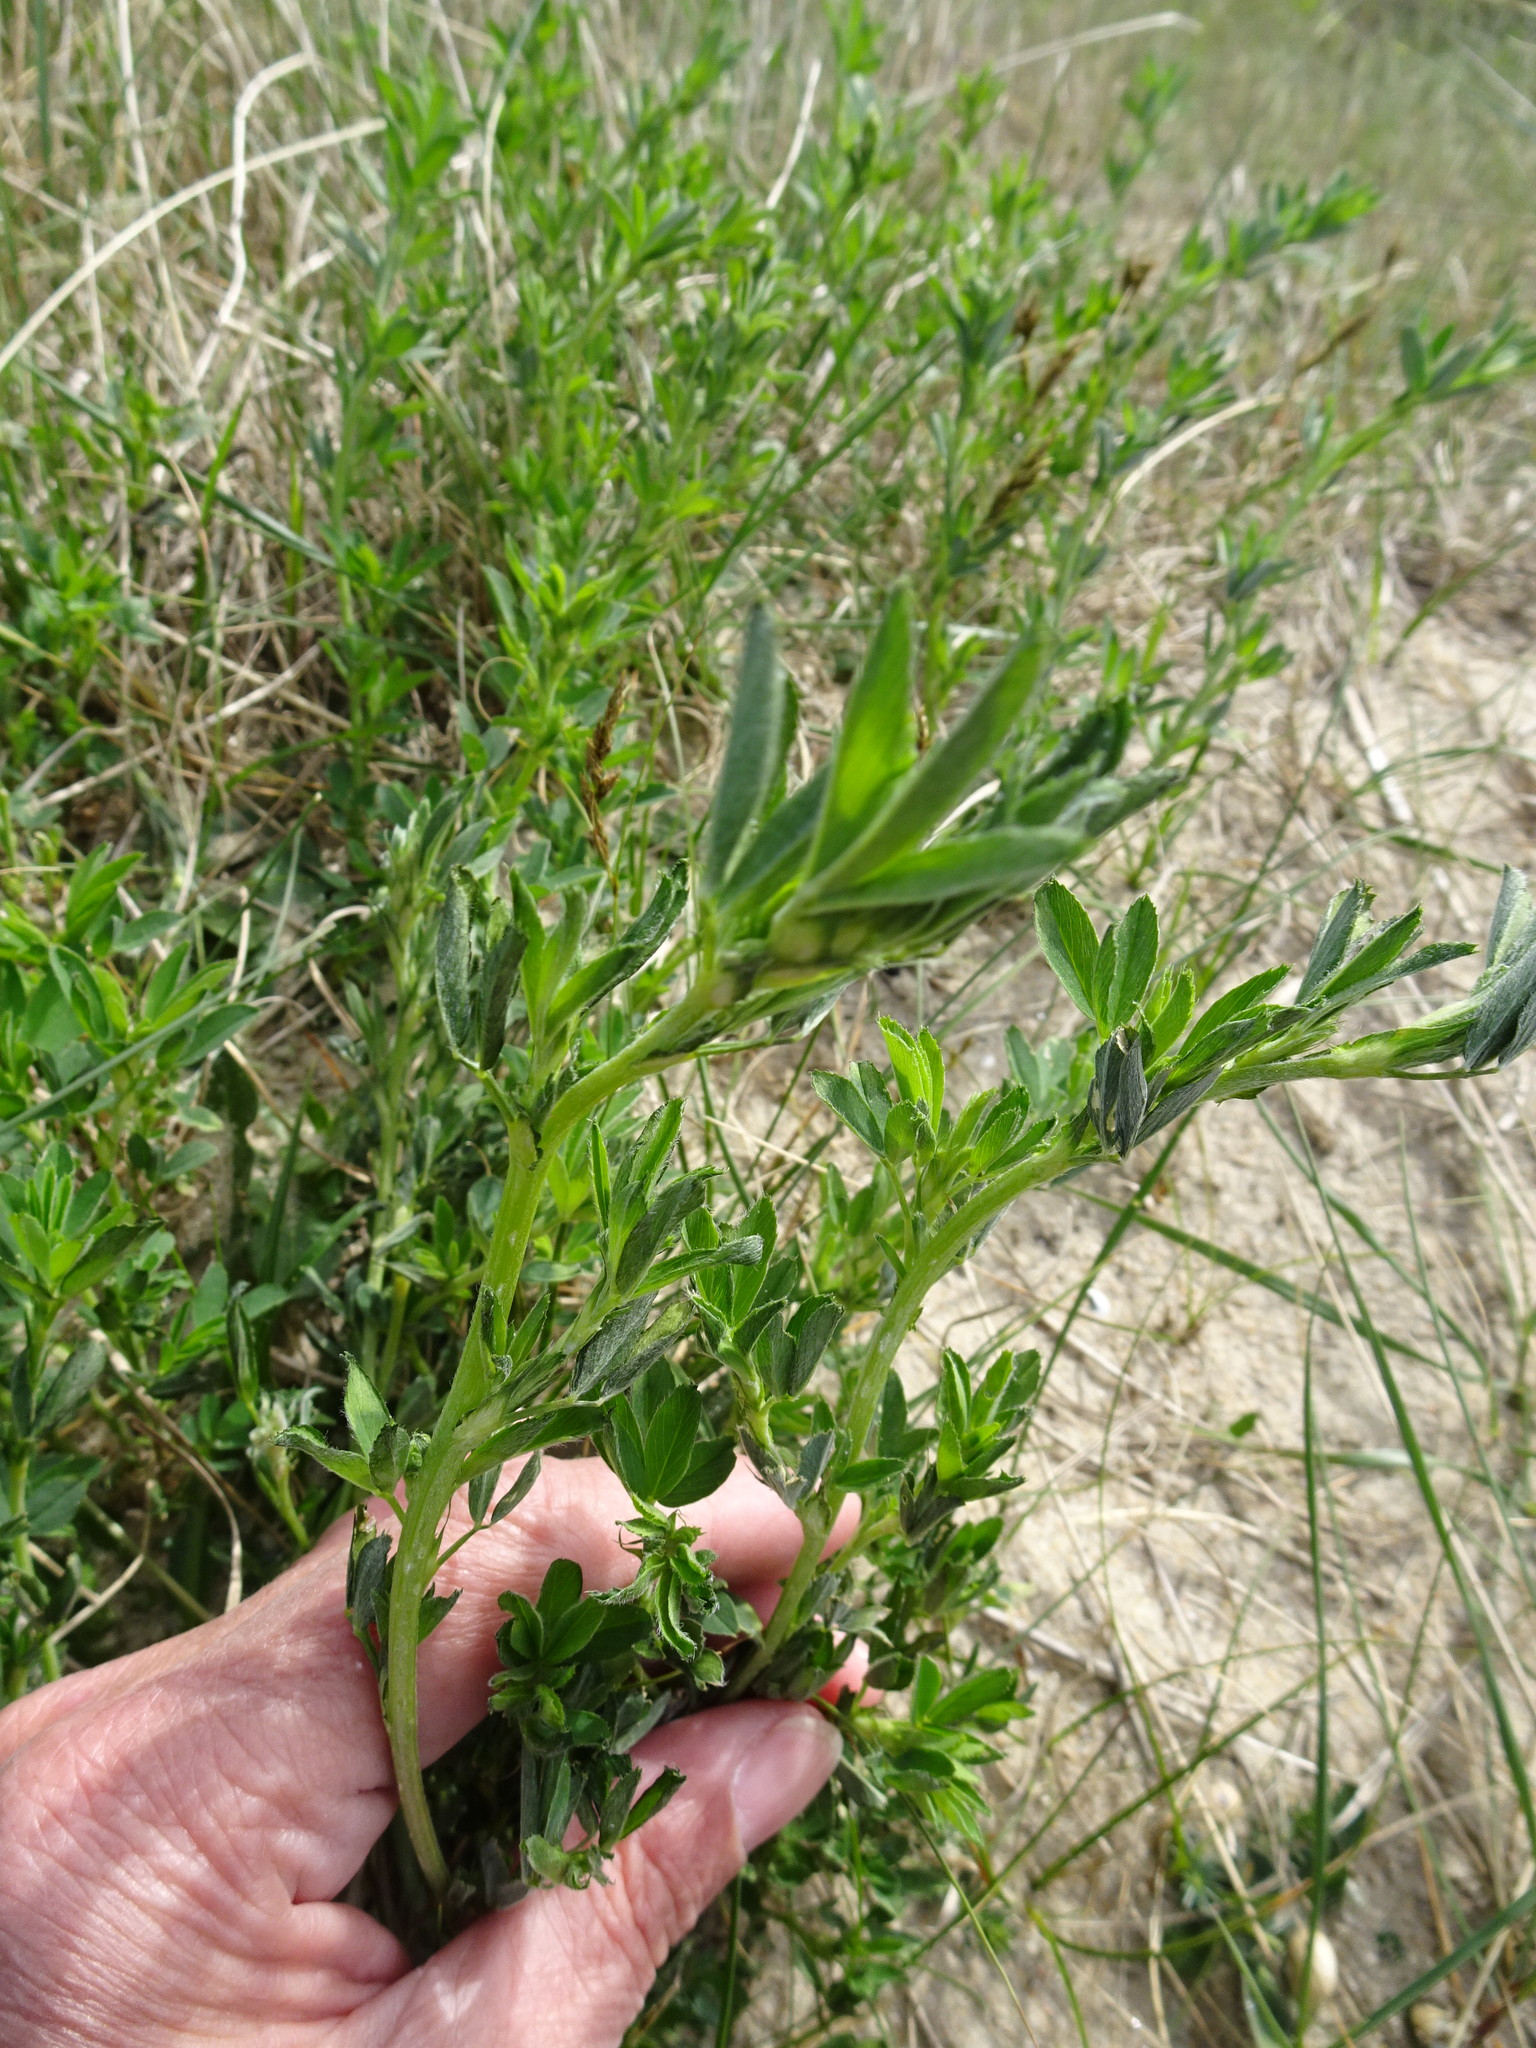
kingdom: Plantae
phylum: Tracheophyta
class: Magnoliopsida
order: Fabales
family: Fabaceae
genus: Medicago
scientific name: Medicago sativa
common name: Alfalfa
